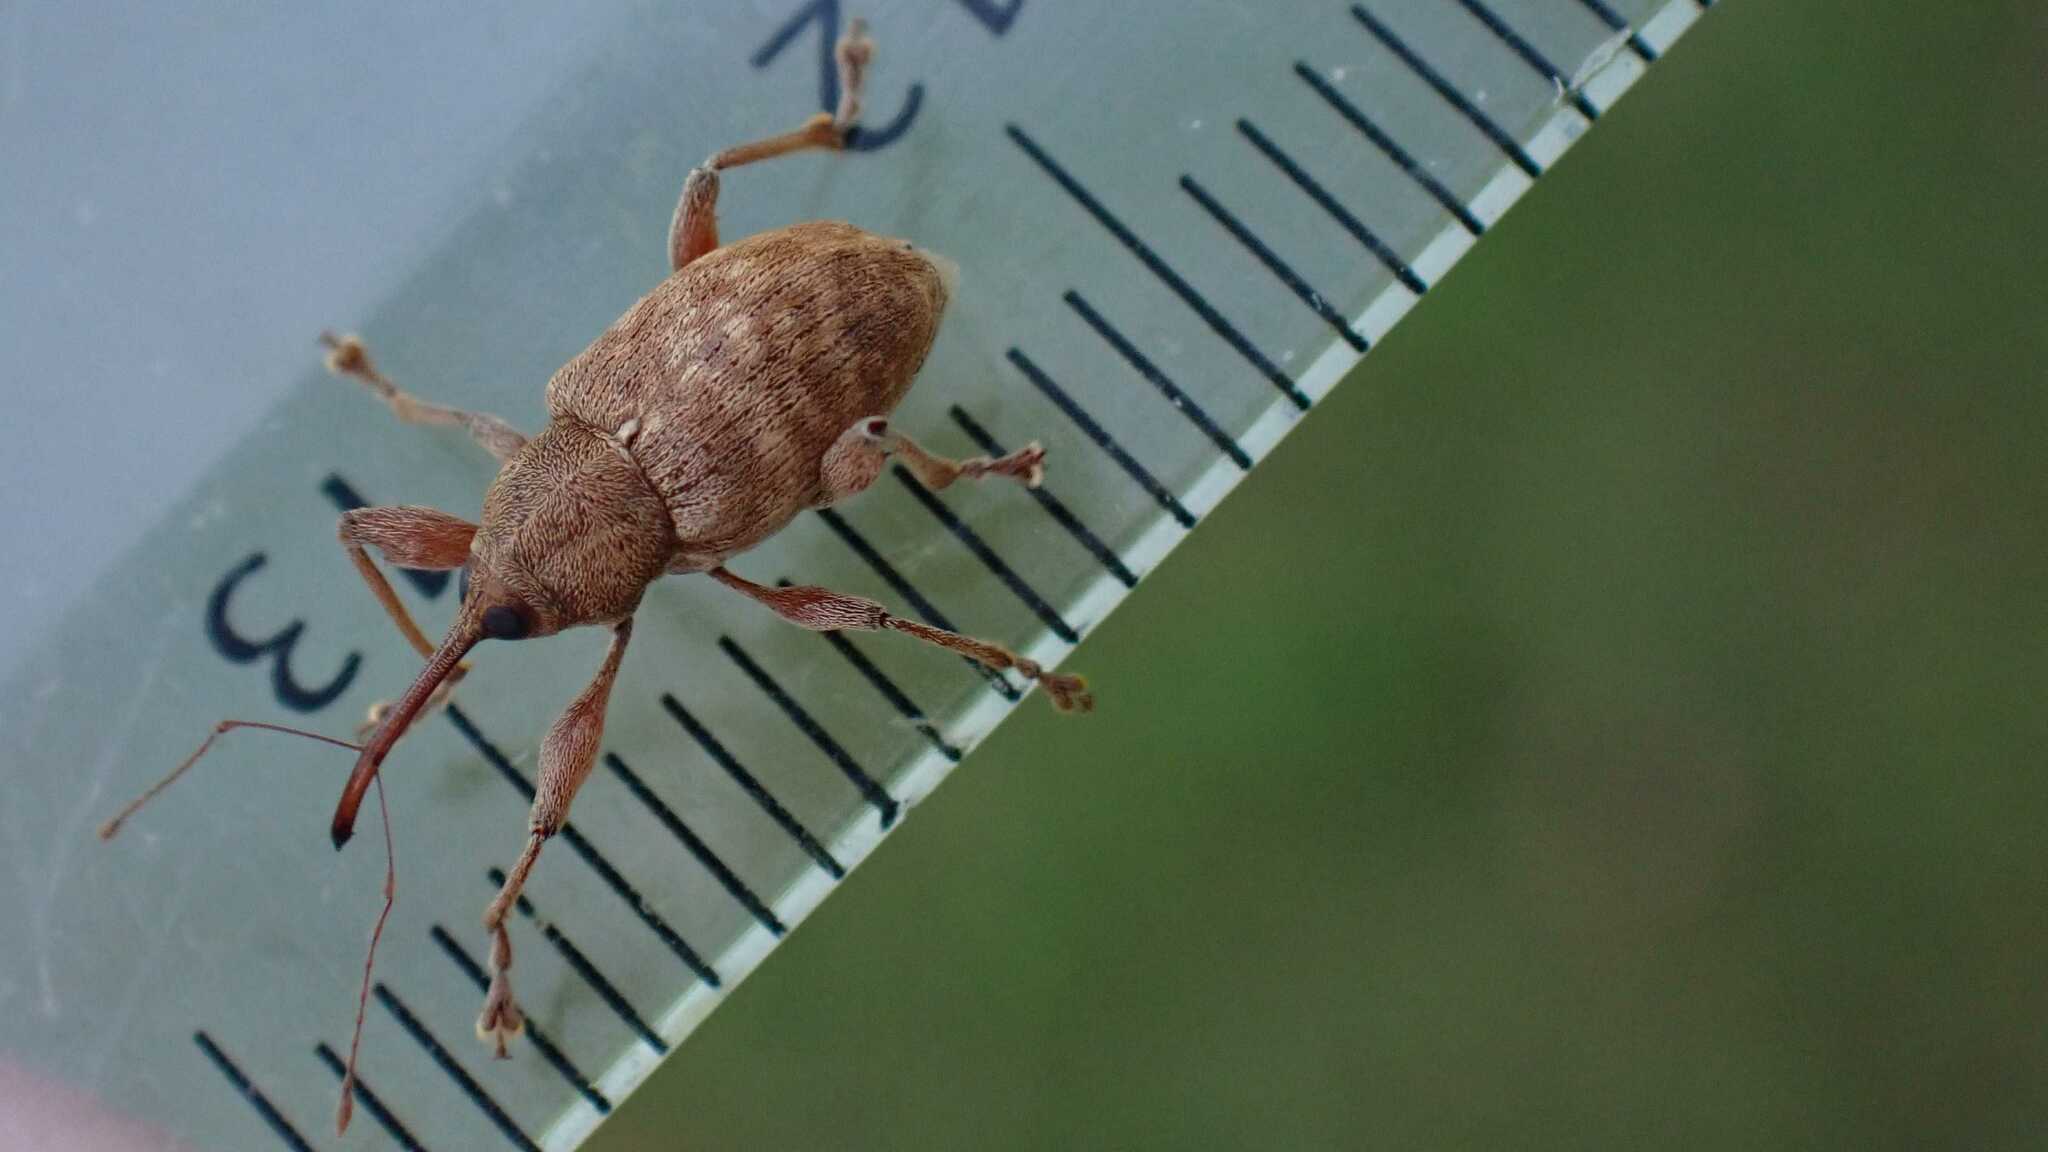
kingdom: Animalia
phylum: Arthropoda
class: Insecta
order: Coleoptera
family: Curculionidae
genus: Curculio
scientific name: Curculio elephas
